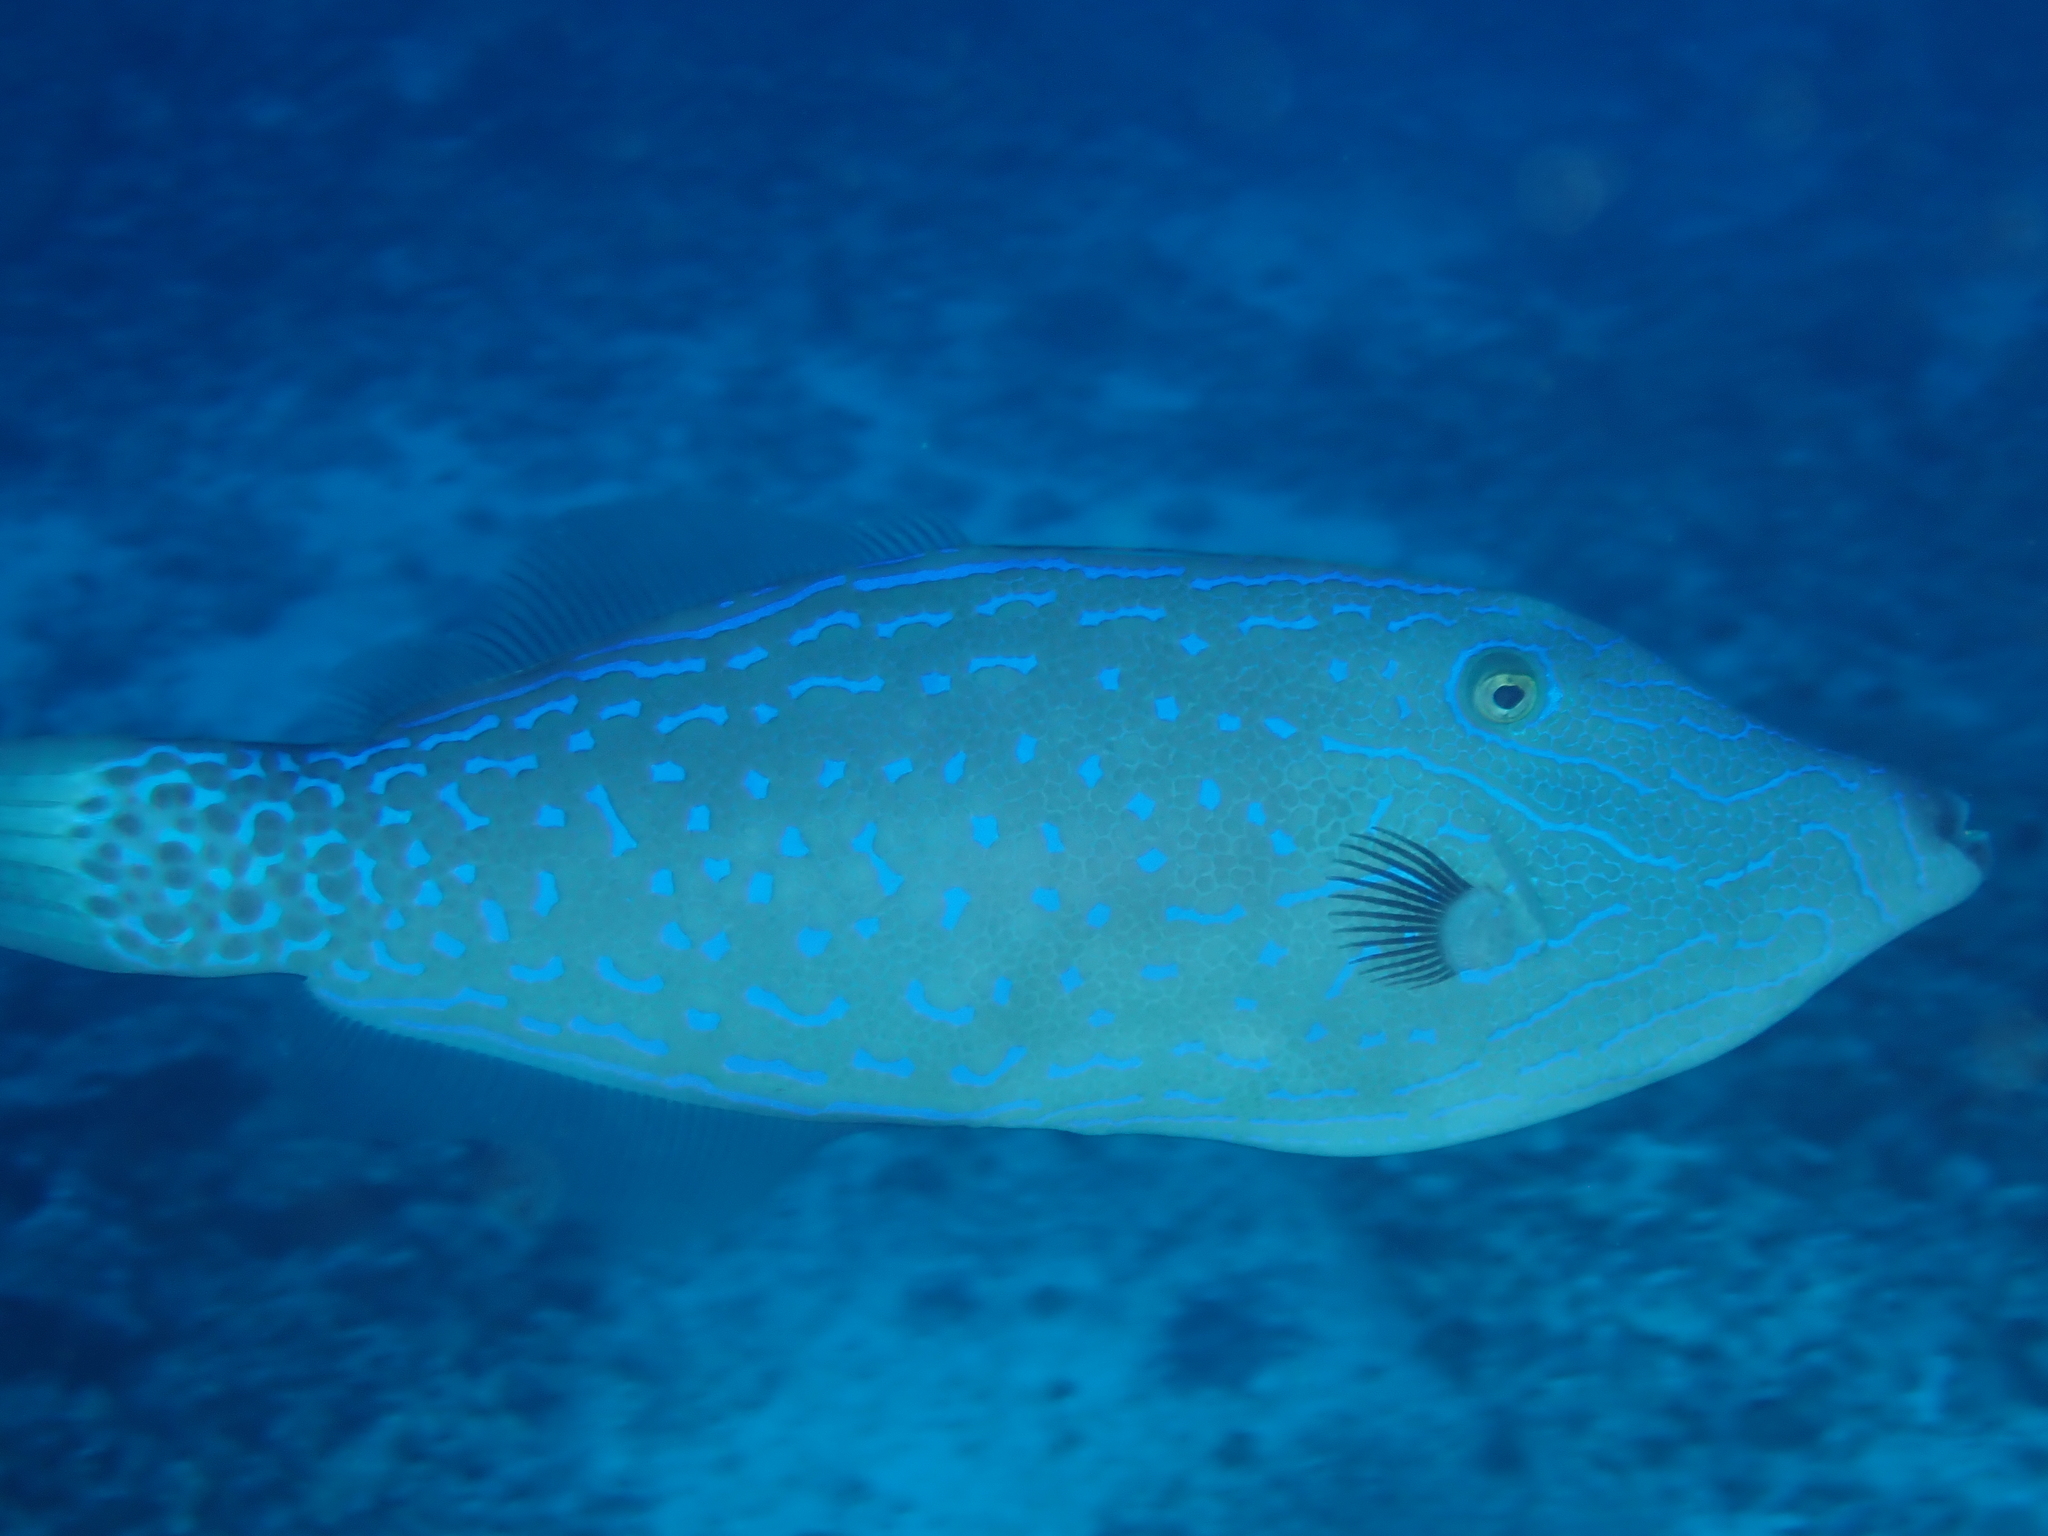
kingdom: Animalia
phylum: Chordata
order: Tetraodontiformes
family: Monacanthidae
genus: Aluterus
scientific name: Aluterus scriptus
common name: Scribbled leatherjacket filefish
